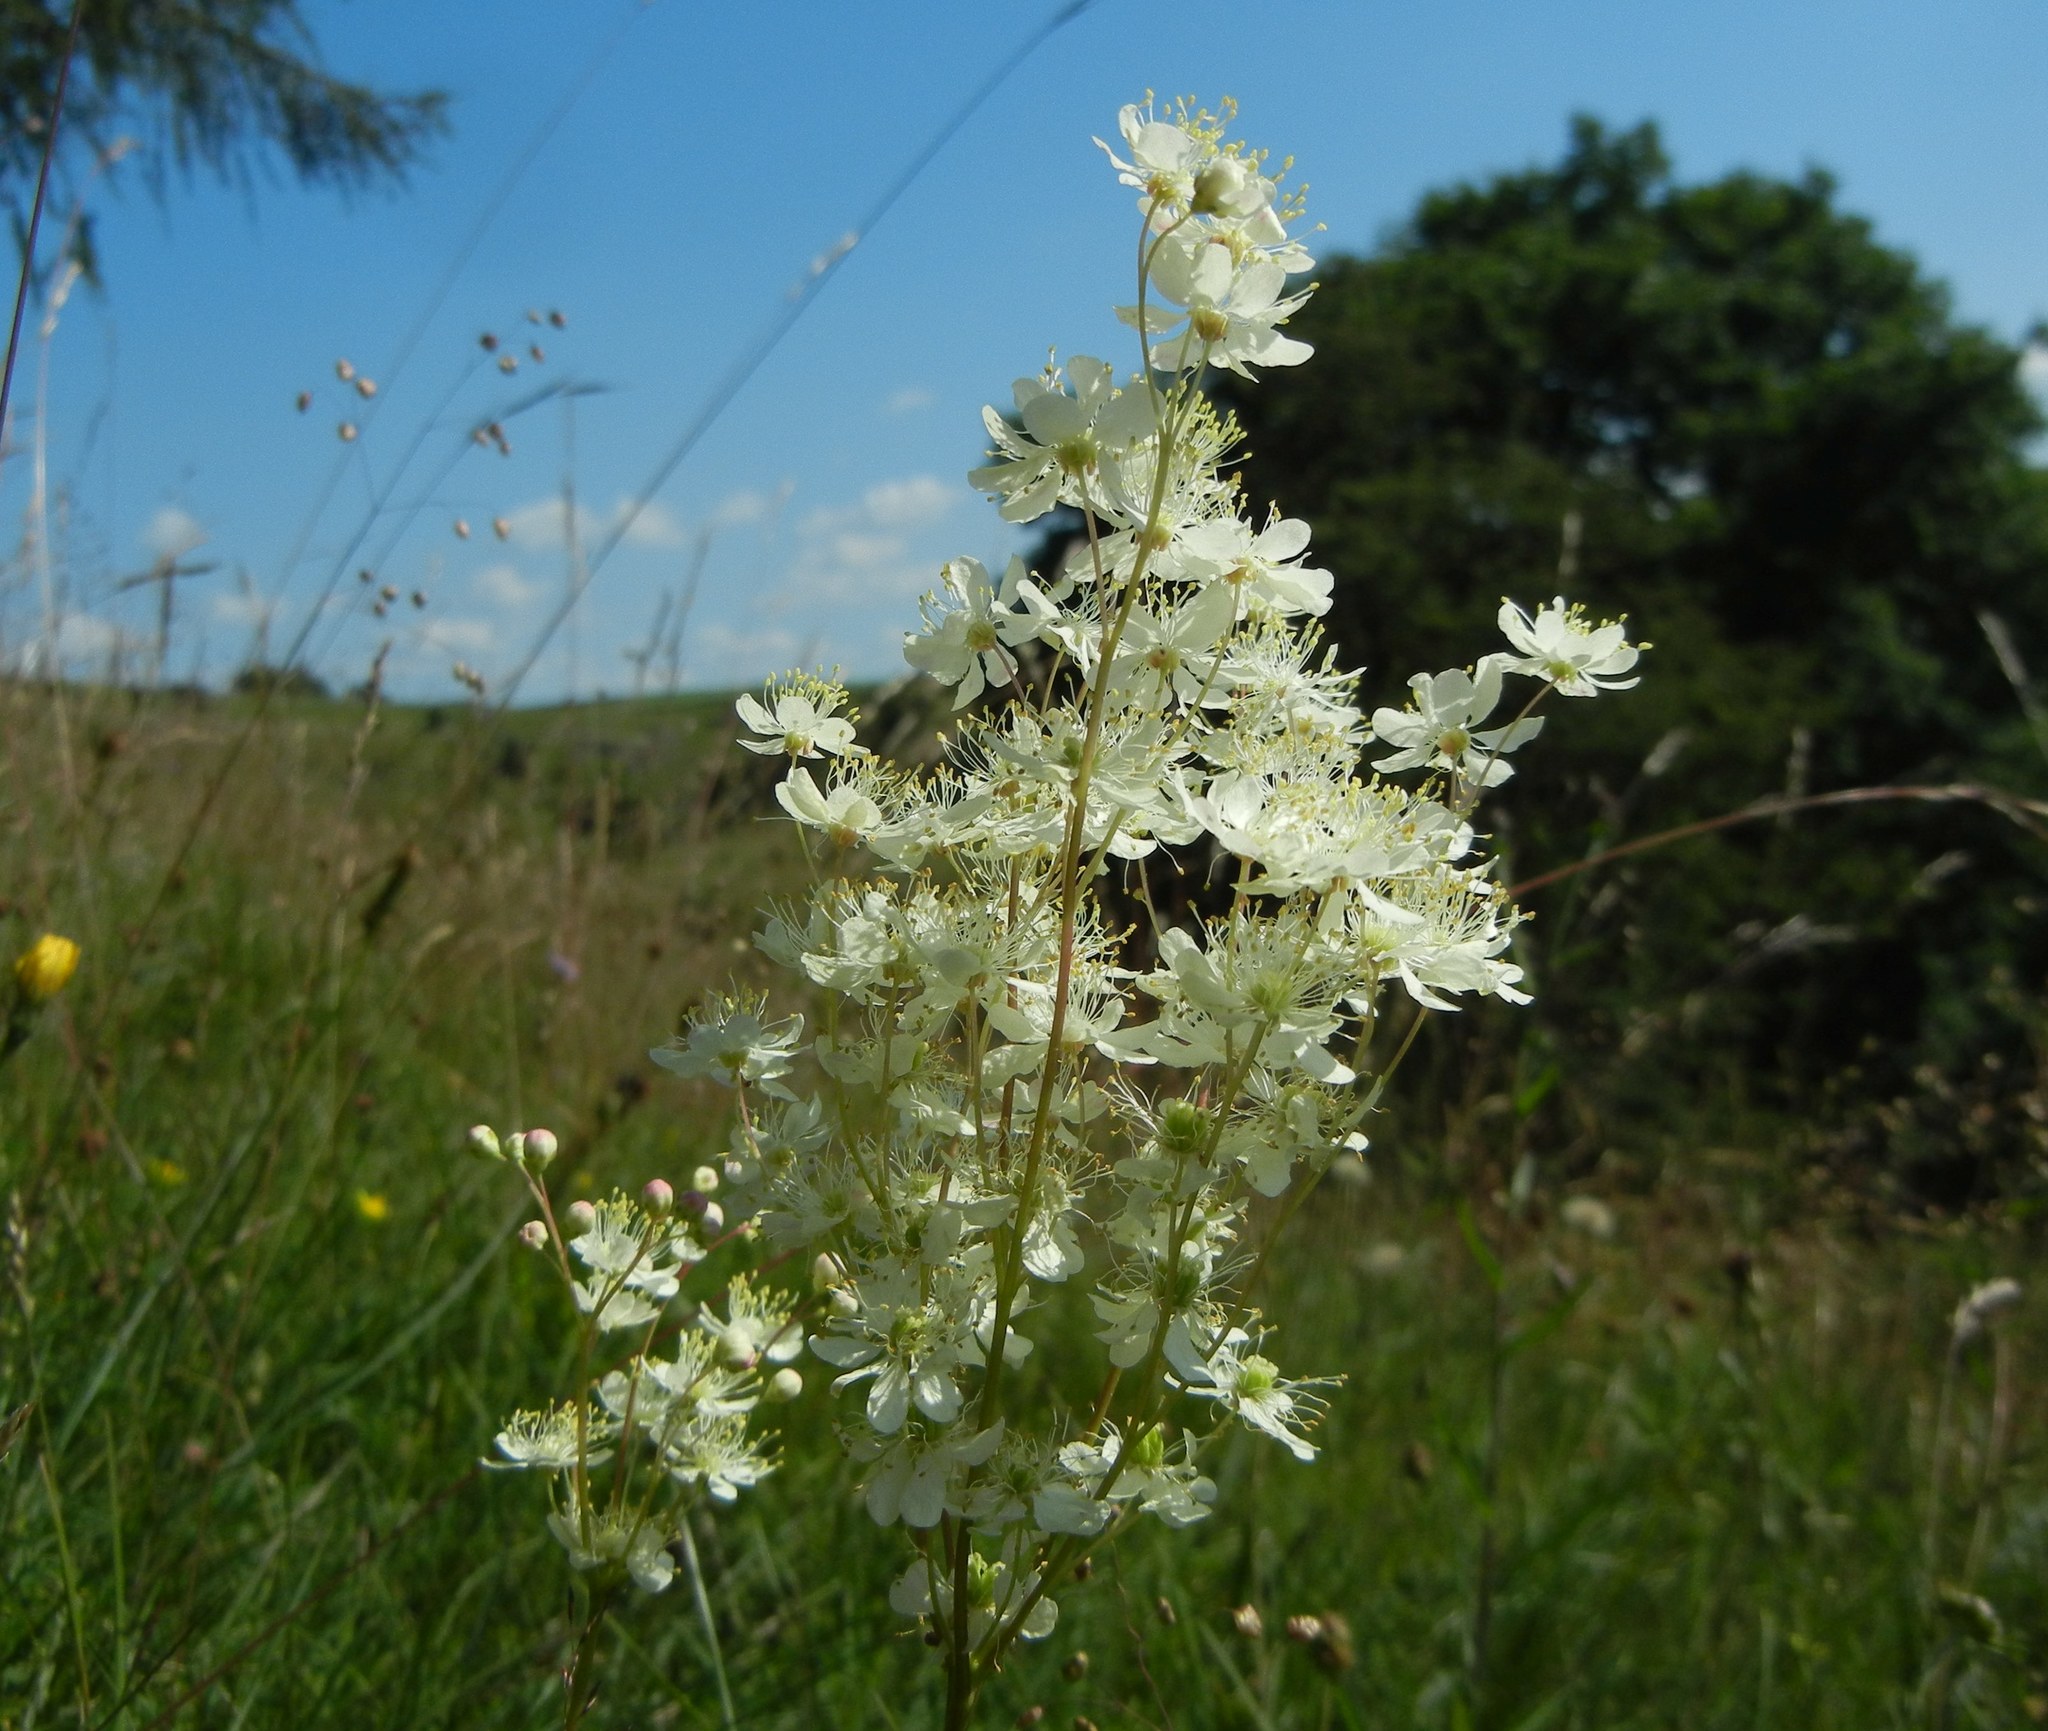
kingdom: Plantae
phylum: Tracheophyta
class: Magnoliopsida
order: Rosales
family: Rosaceae
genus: Filipendula
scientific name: Filipendula vulgaris
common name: Dropwort
